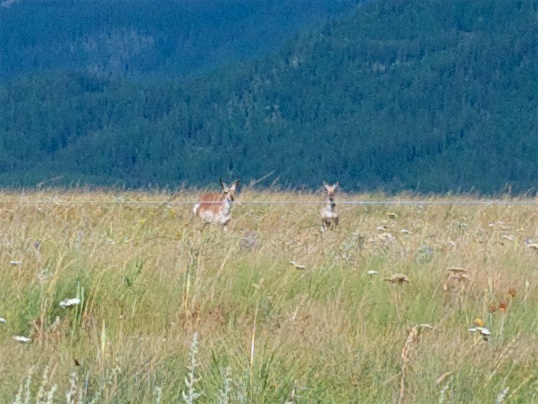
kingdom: Animalia
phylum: Chordata
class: Mammalia
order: Artiodactyla
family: Antilocapridae
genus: Antilocapra
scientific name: Antilocapra americana
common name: Pronghorn
